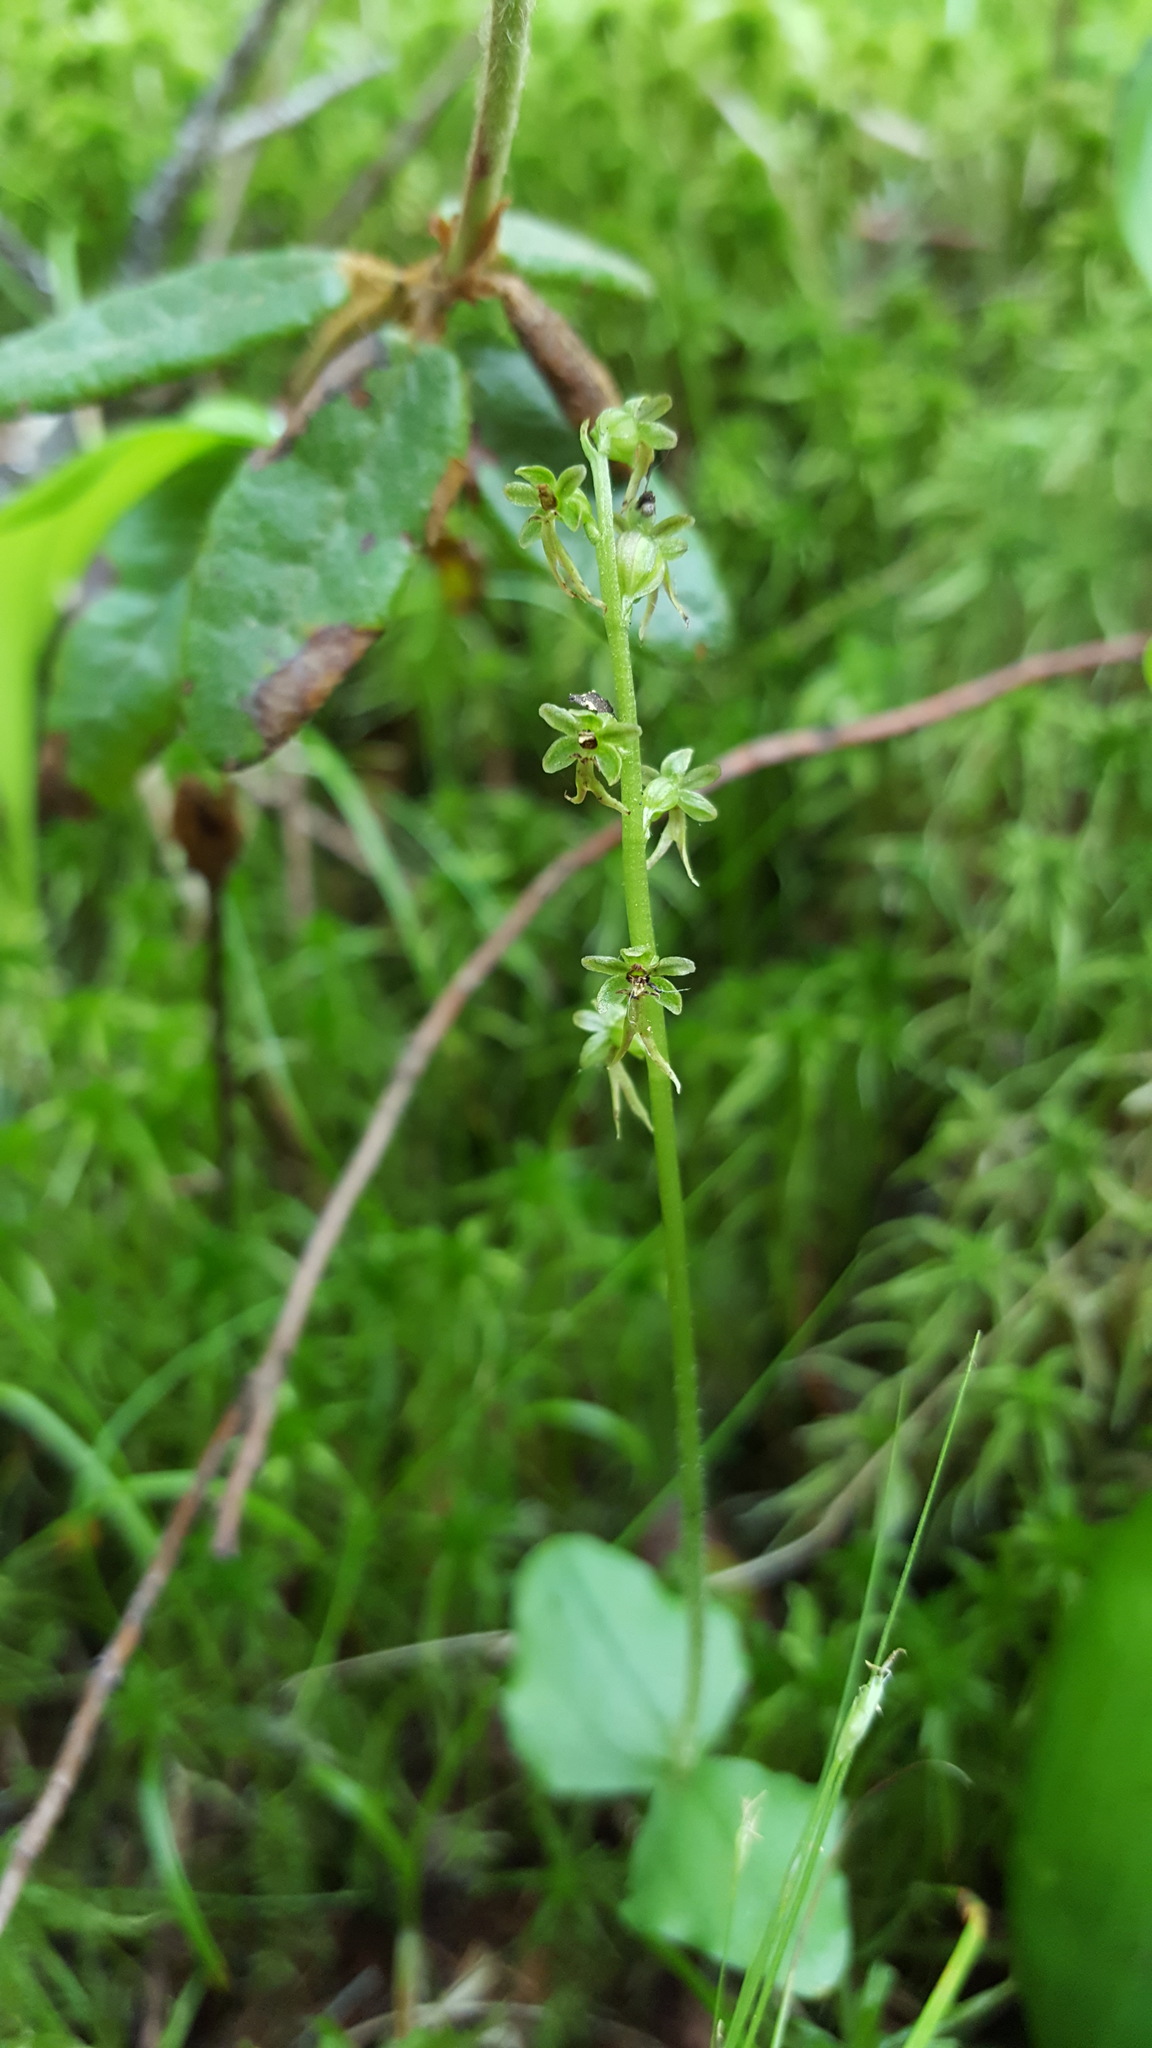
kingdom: Plantae
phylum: Tracheophyta
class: Liliopsida
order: Asparagales
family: Orchidaceae
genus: Neottia
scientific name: Neottia cordata
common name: Lesser twayblade
